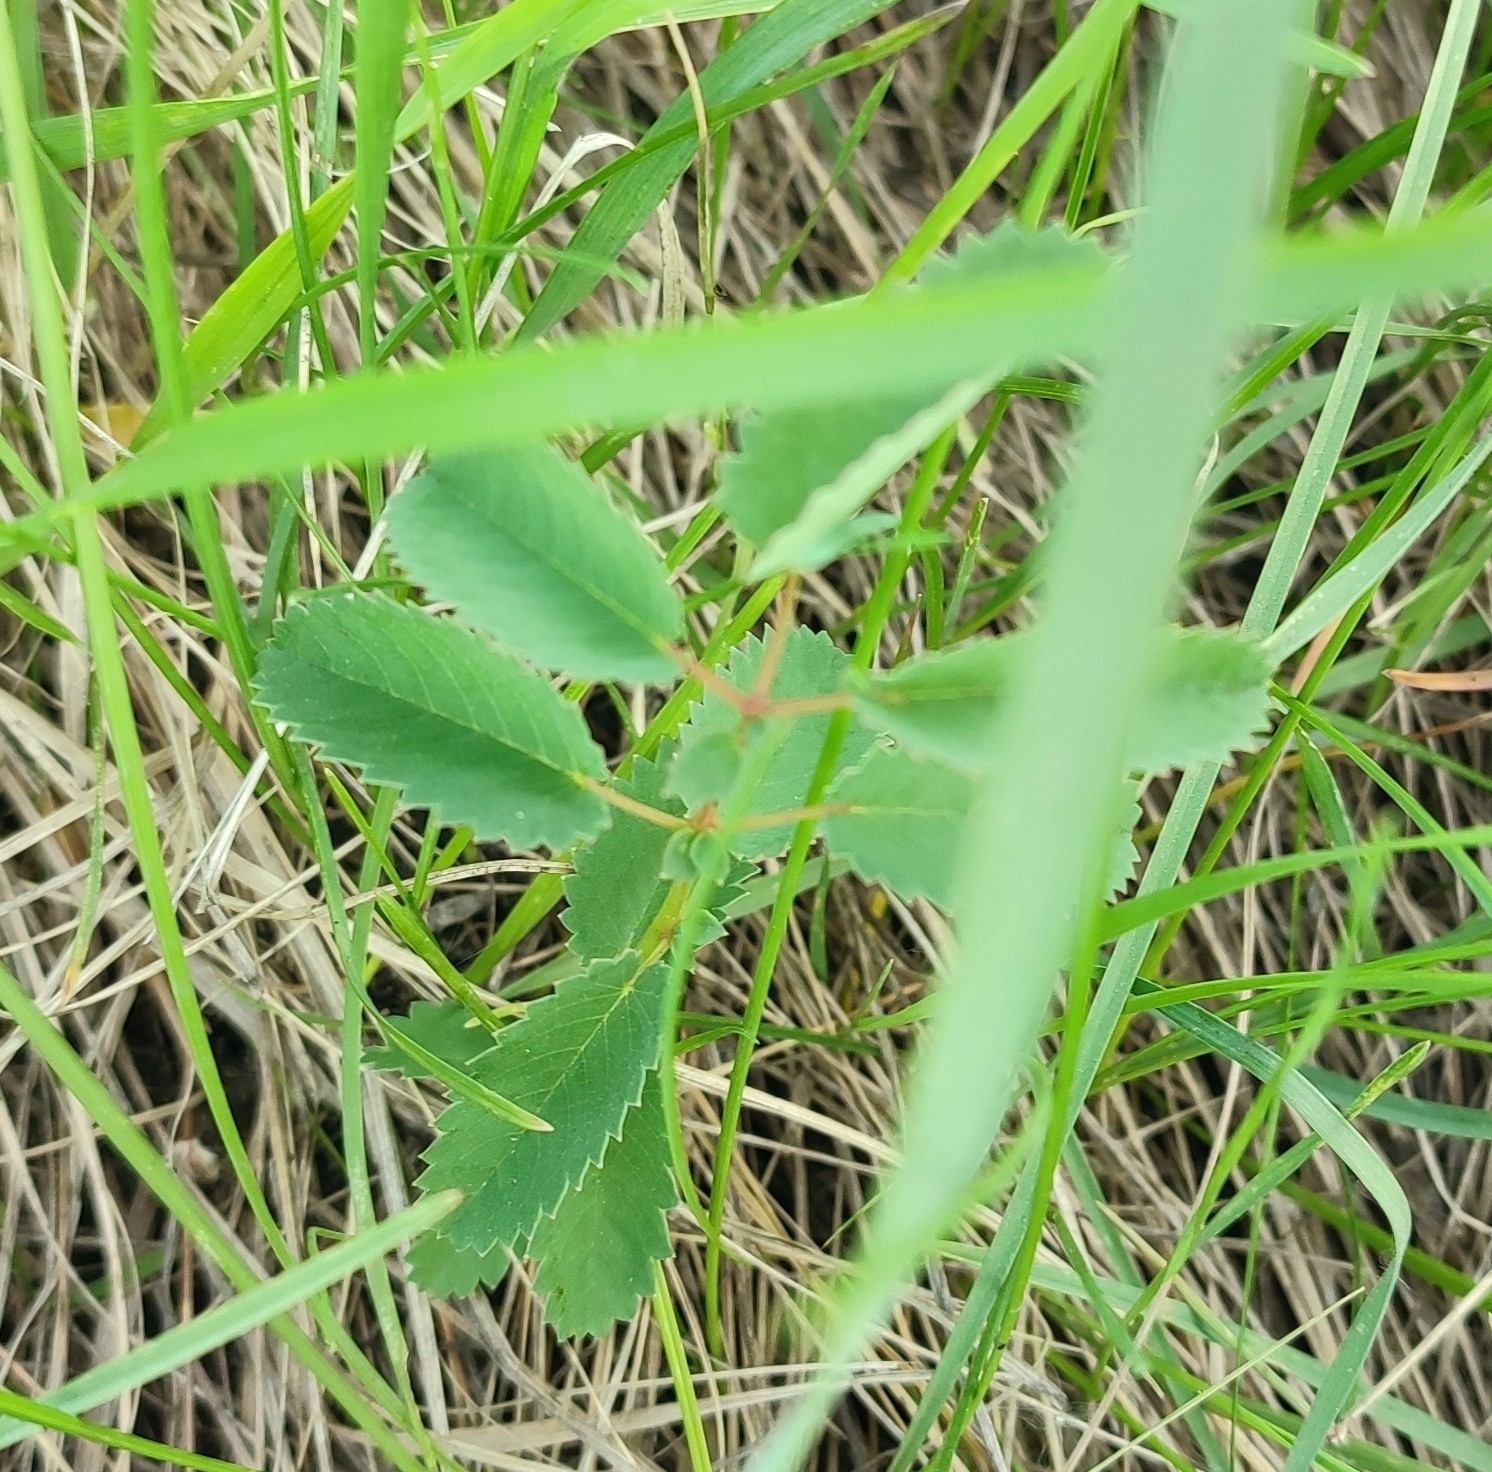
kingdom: Plantae
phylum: Tracheophyta
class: Magnoliopsida
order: Rosales
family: Rosaceae
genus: Sanguisorba
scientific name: Sanguisorba officinalis
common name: Great burnet
